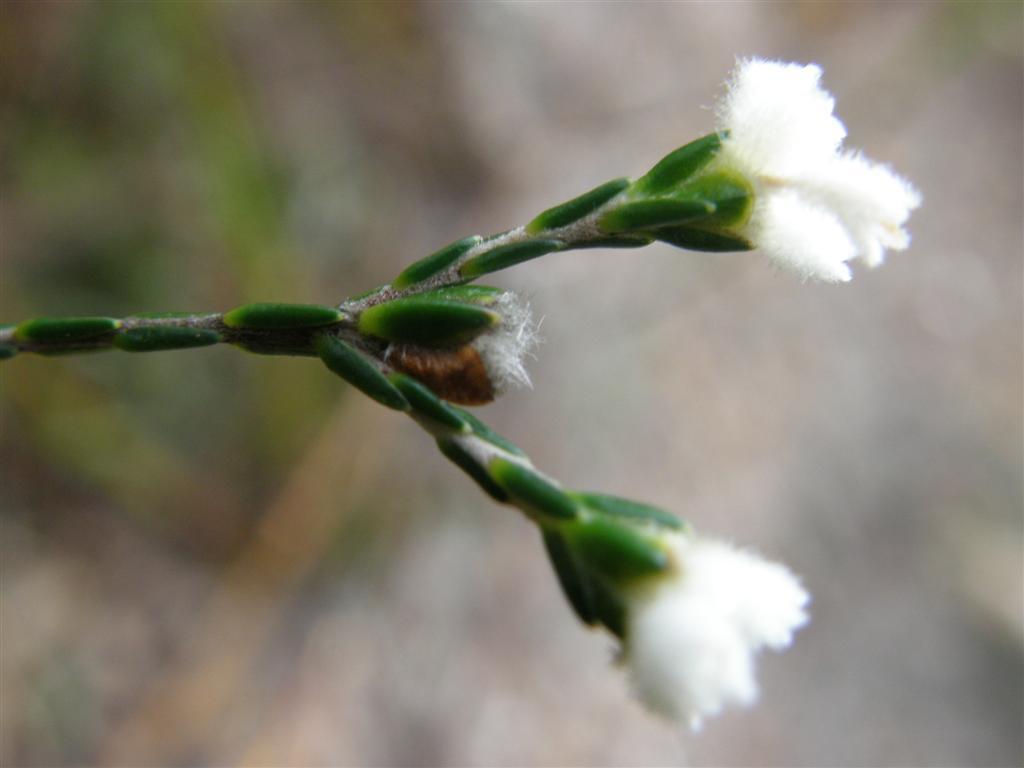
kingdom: Plantae
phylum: Tracheophyta
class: Magnoliopsida
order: Malvales
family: Thymelaeaceae
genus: Lachnaea
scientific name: Lachnaea greytonensis
